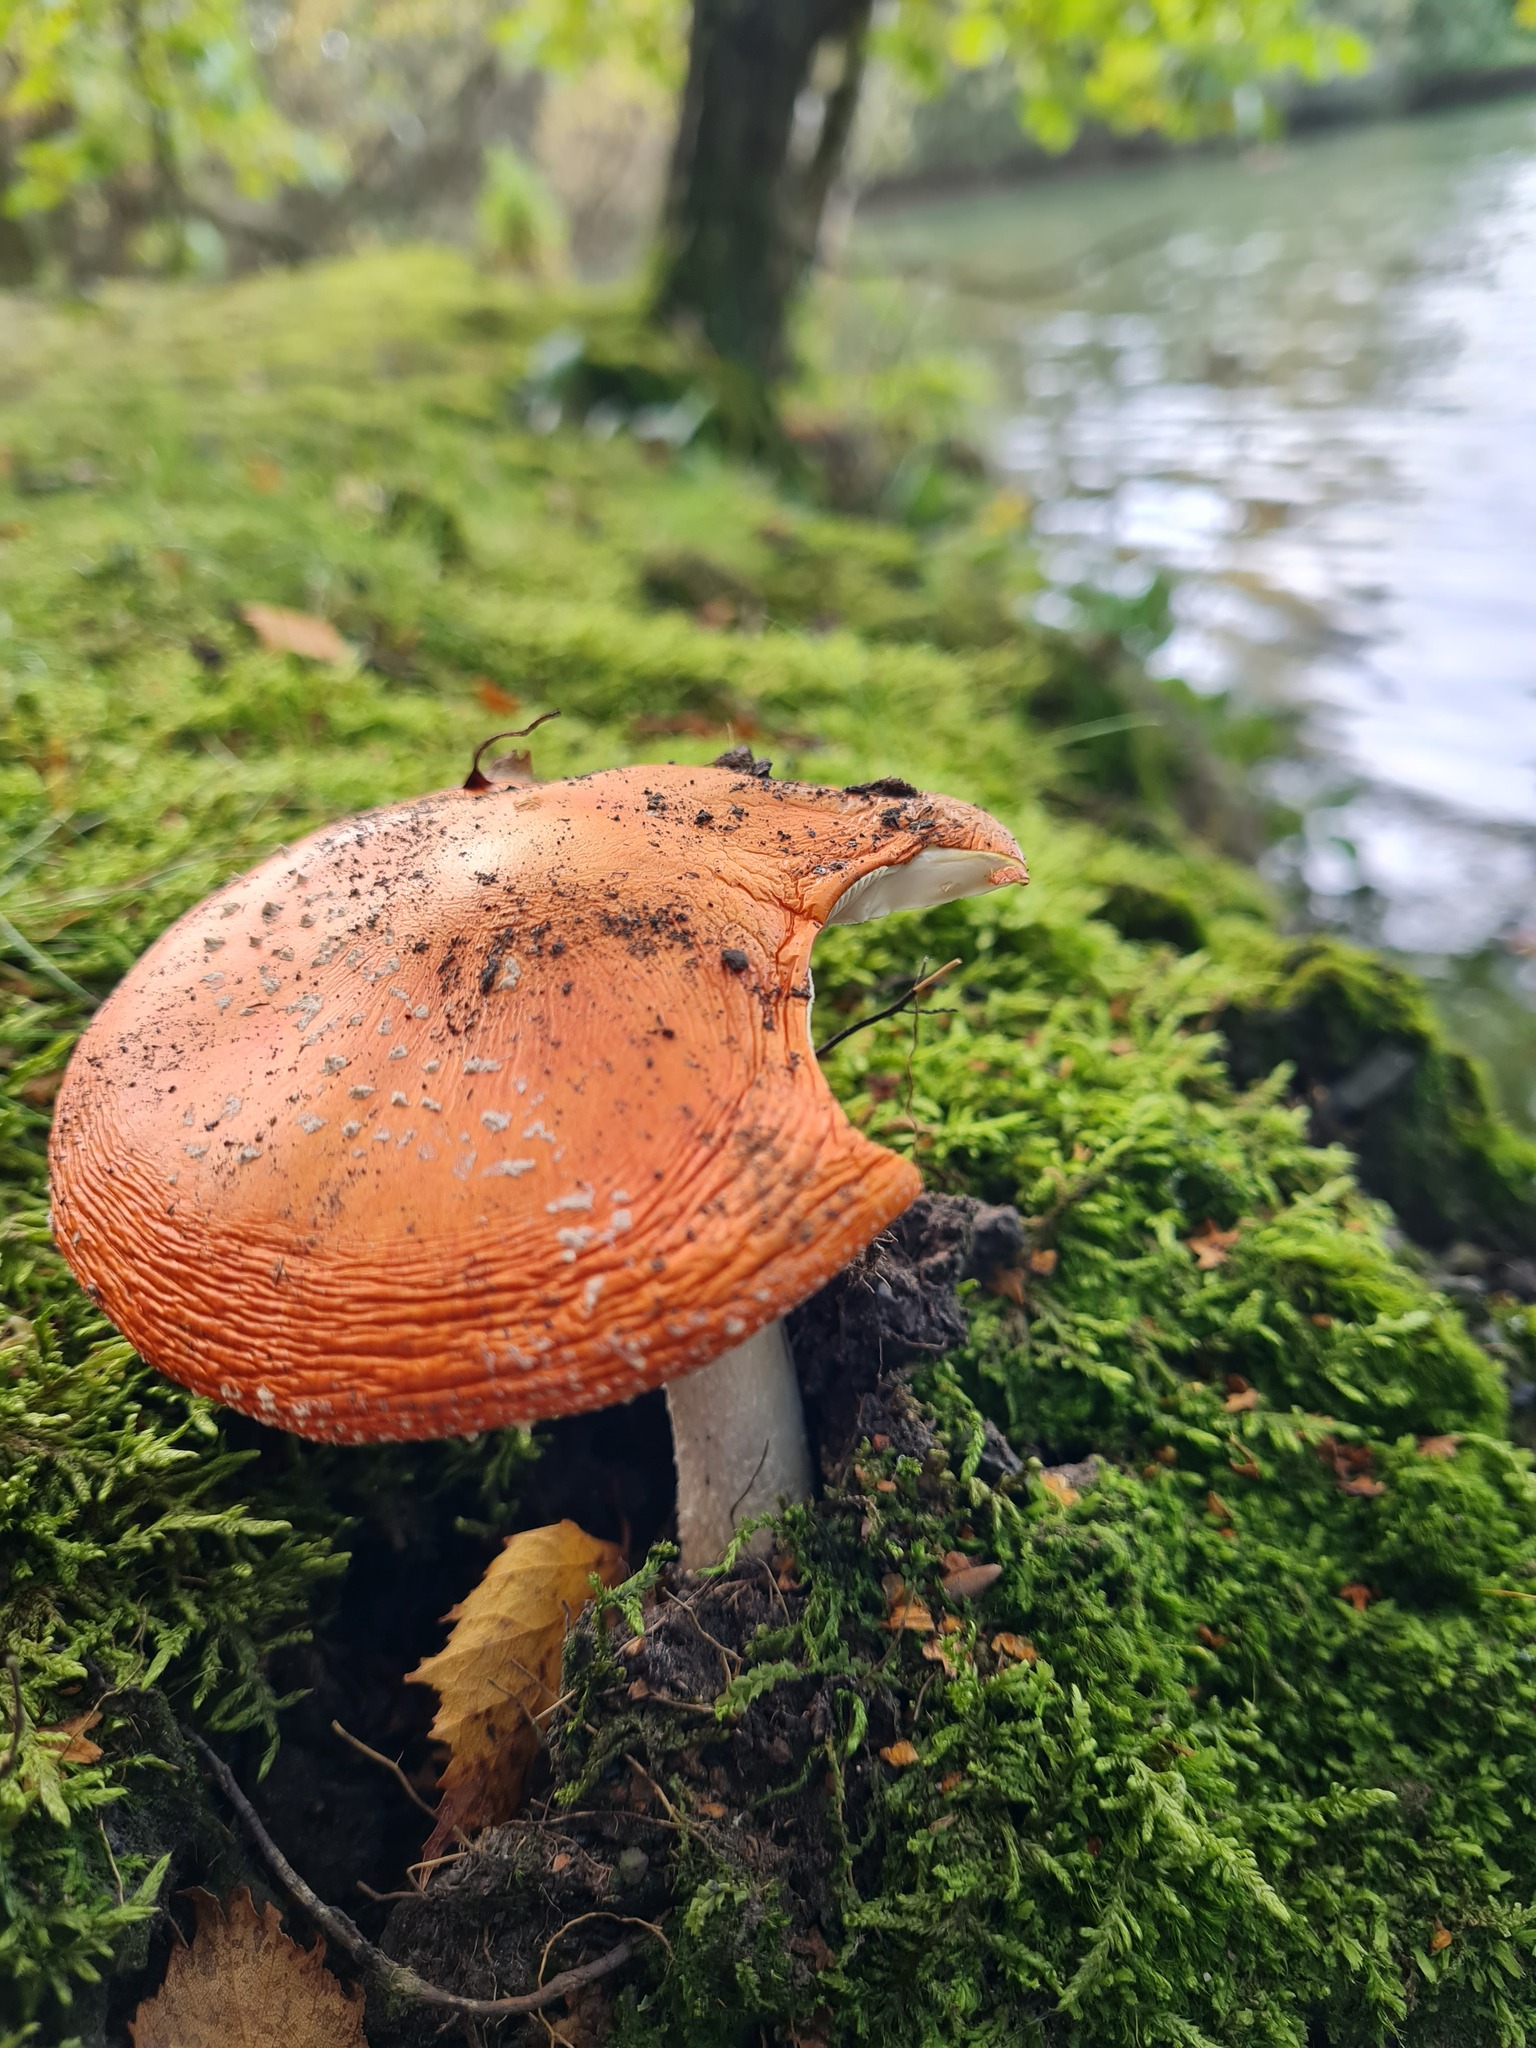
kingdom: Fungi
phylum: Basidiomycota
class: Agaricomycetes
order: Agaricales
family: Amanitaceae
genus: Amanita
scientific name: Amanita muscaria
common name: Fly agaric
